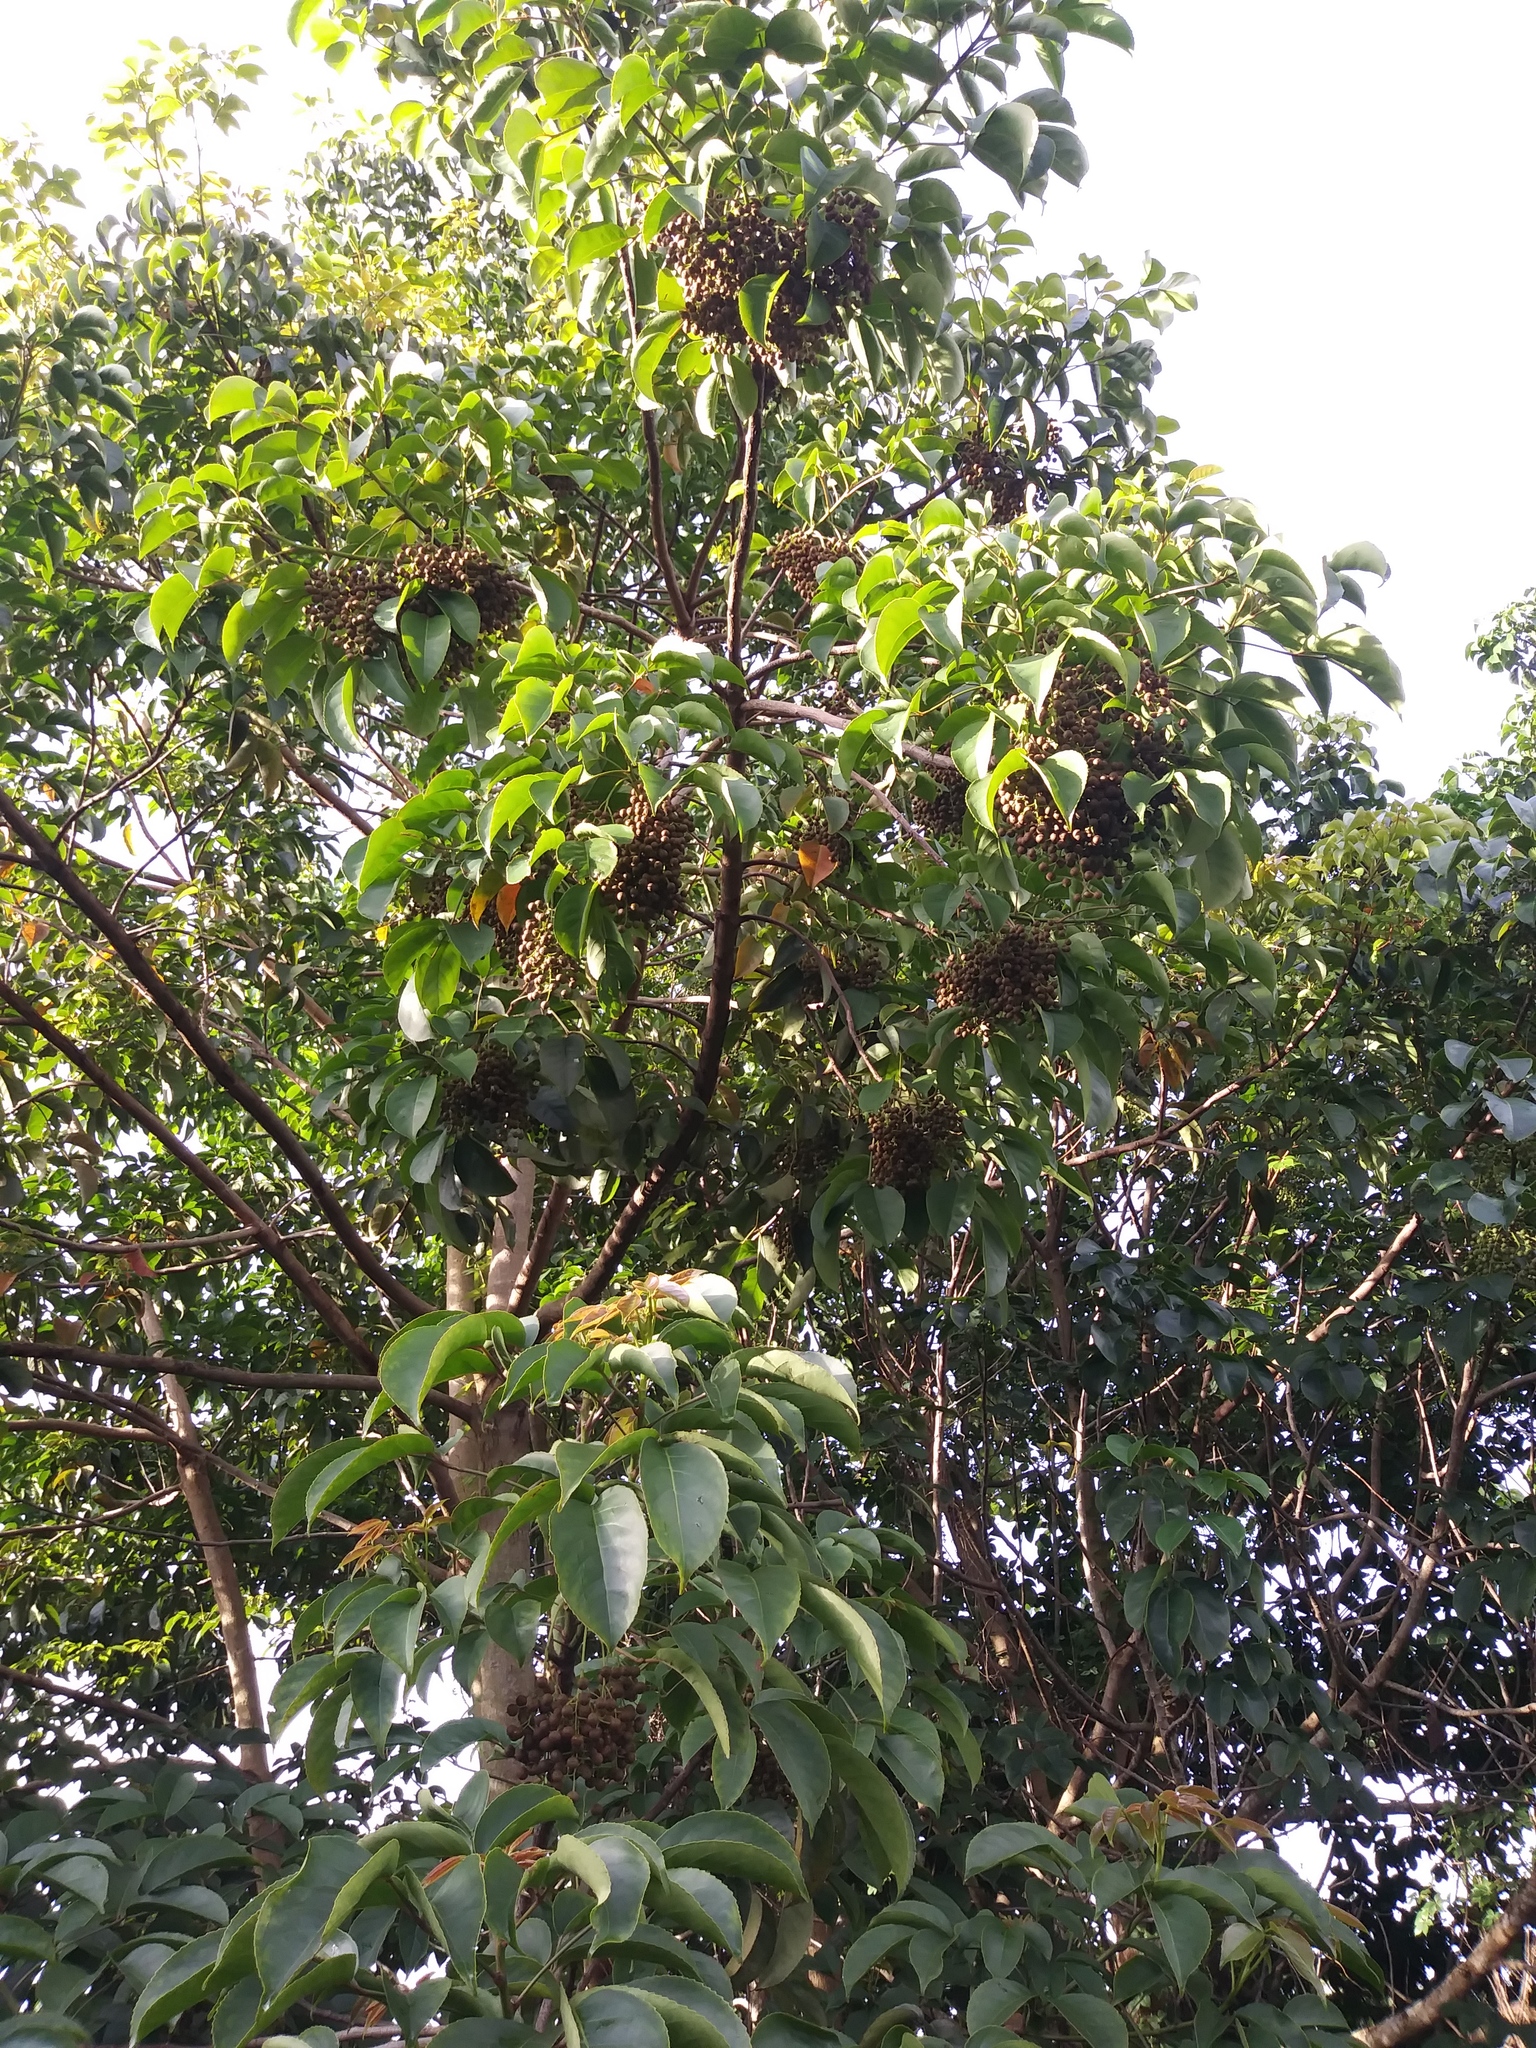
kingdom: Plantae
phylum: Tracheophyta
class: Magnoliopsida
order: Malpighiales
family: Phyllanthaceae
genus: Bischofia
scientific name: Bischofia javanica
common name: Javanese bishopwood
